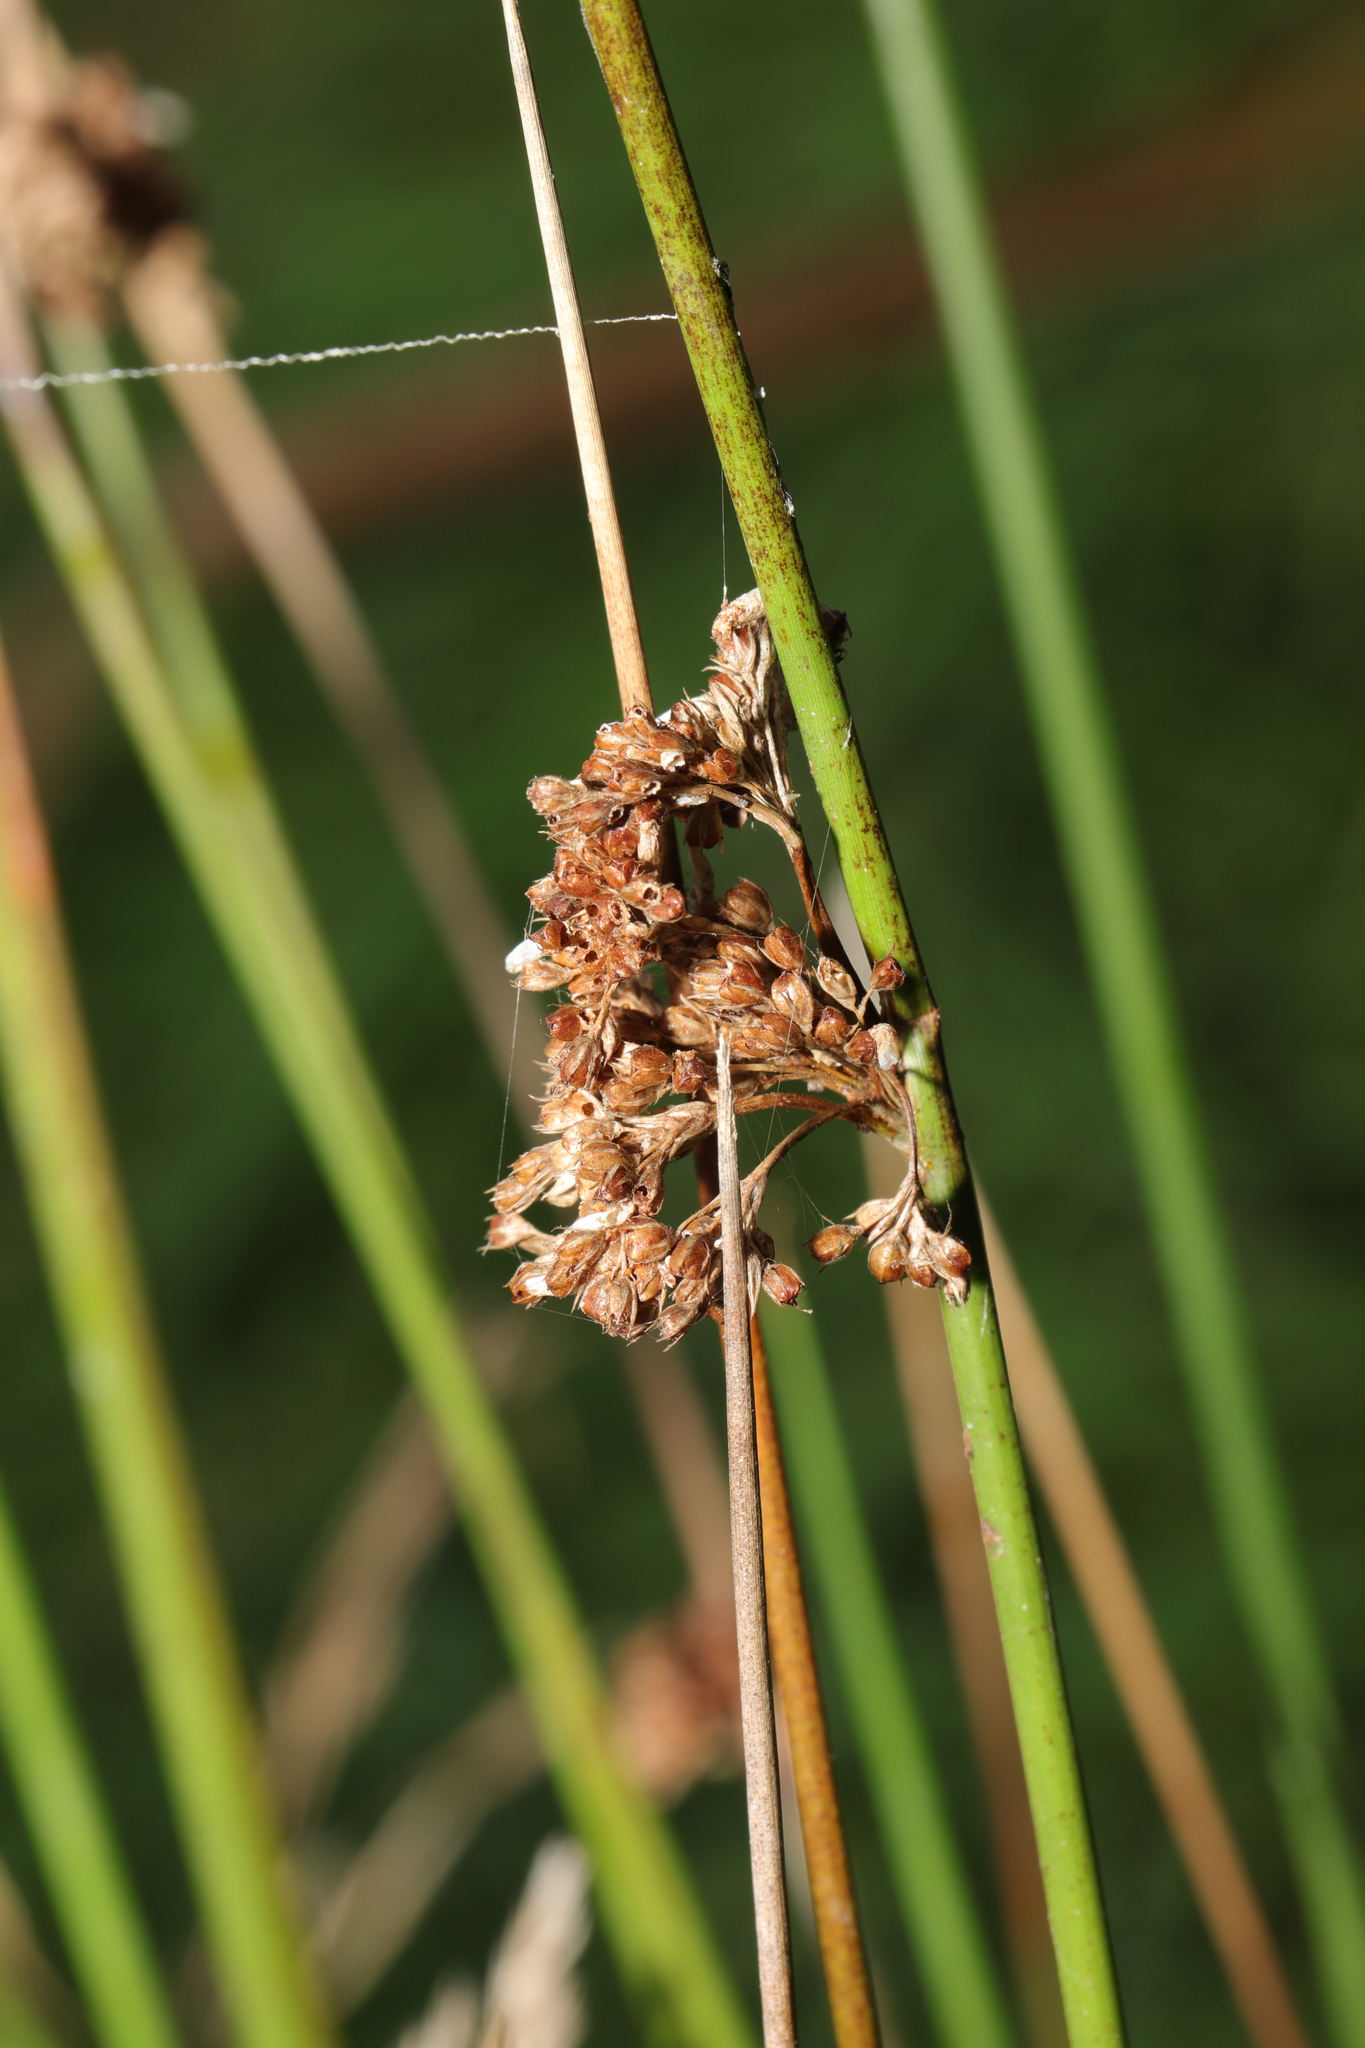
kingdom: Plantae
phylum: Tracheophyta
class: Liliopsida
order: Poales
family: Juncaceae
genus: Juncus
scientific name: Juncus effusus
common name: Soft rush
